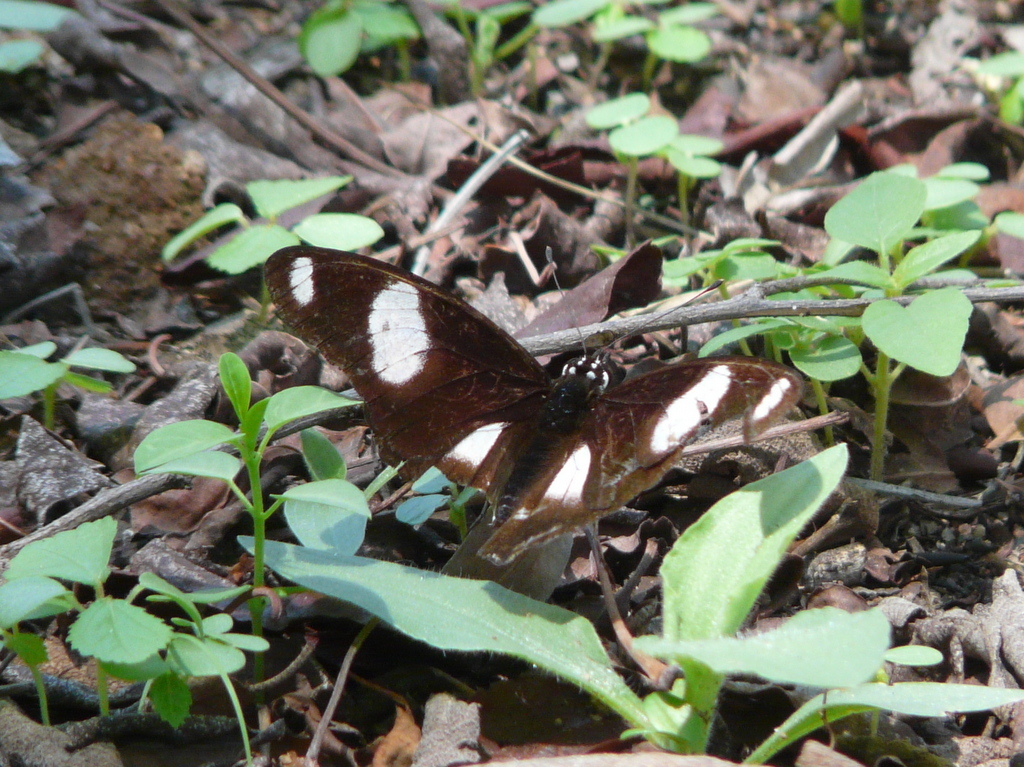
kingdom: Animalia
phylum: Arthropoda
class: Insecta
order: Lepidoptera
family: Nymphalidae
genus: Hypolimnas
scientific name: Hypolimnas misippus
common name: False plain tiger
